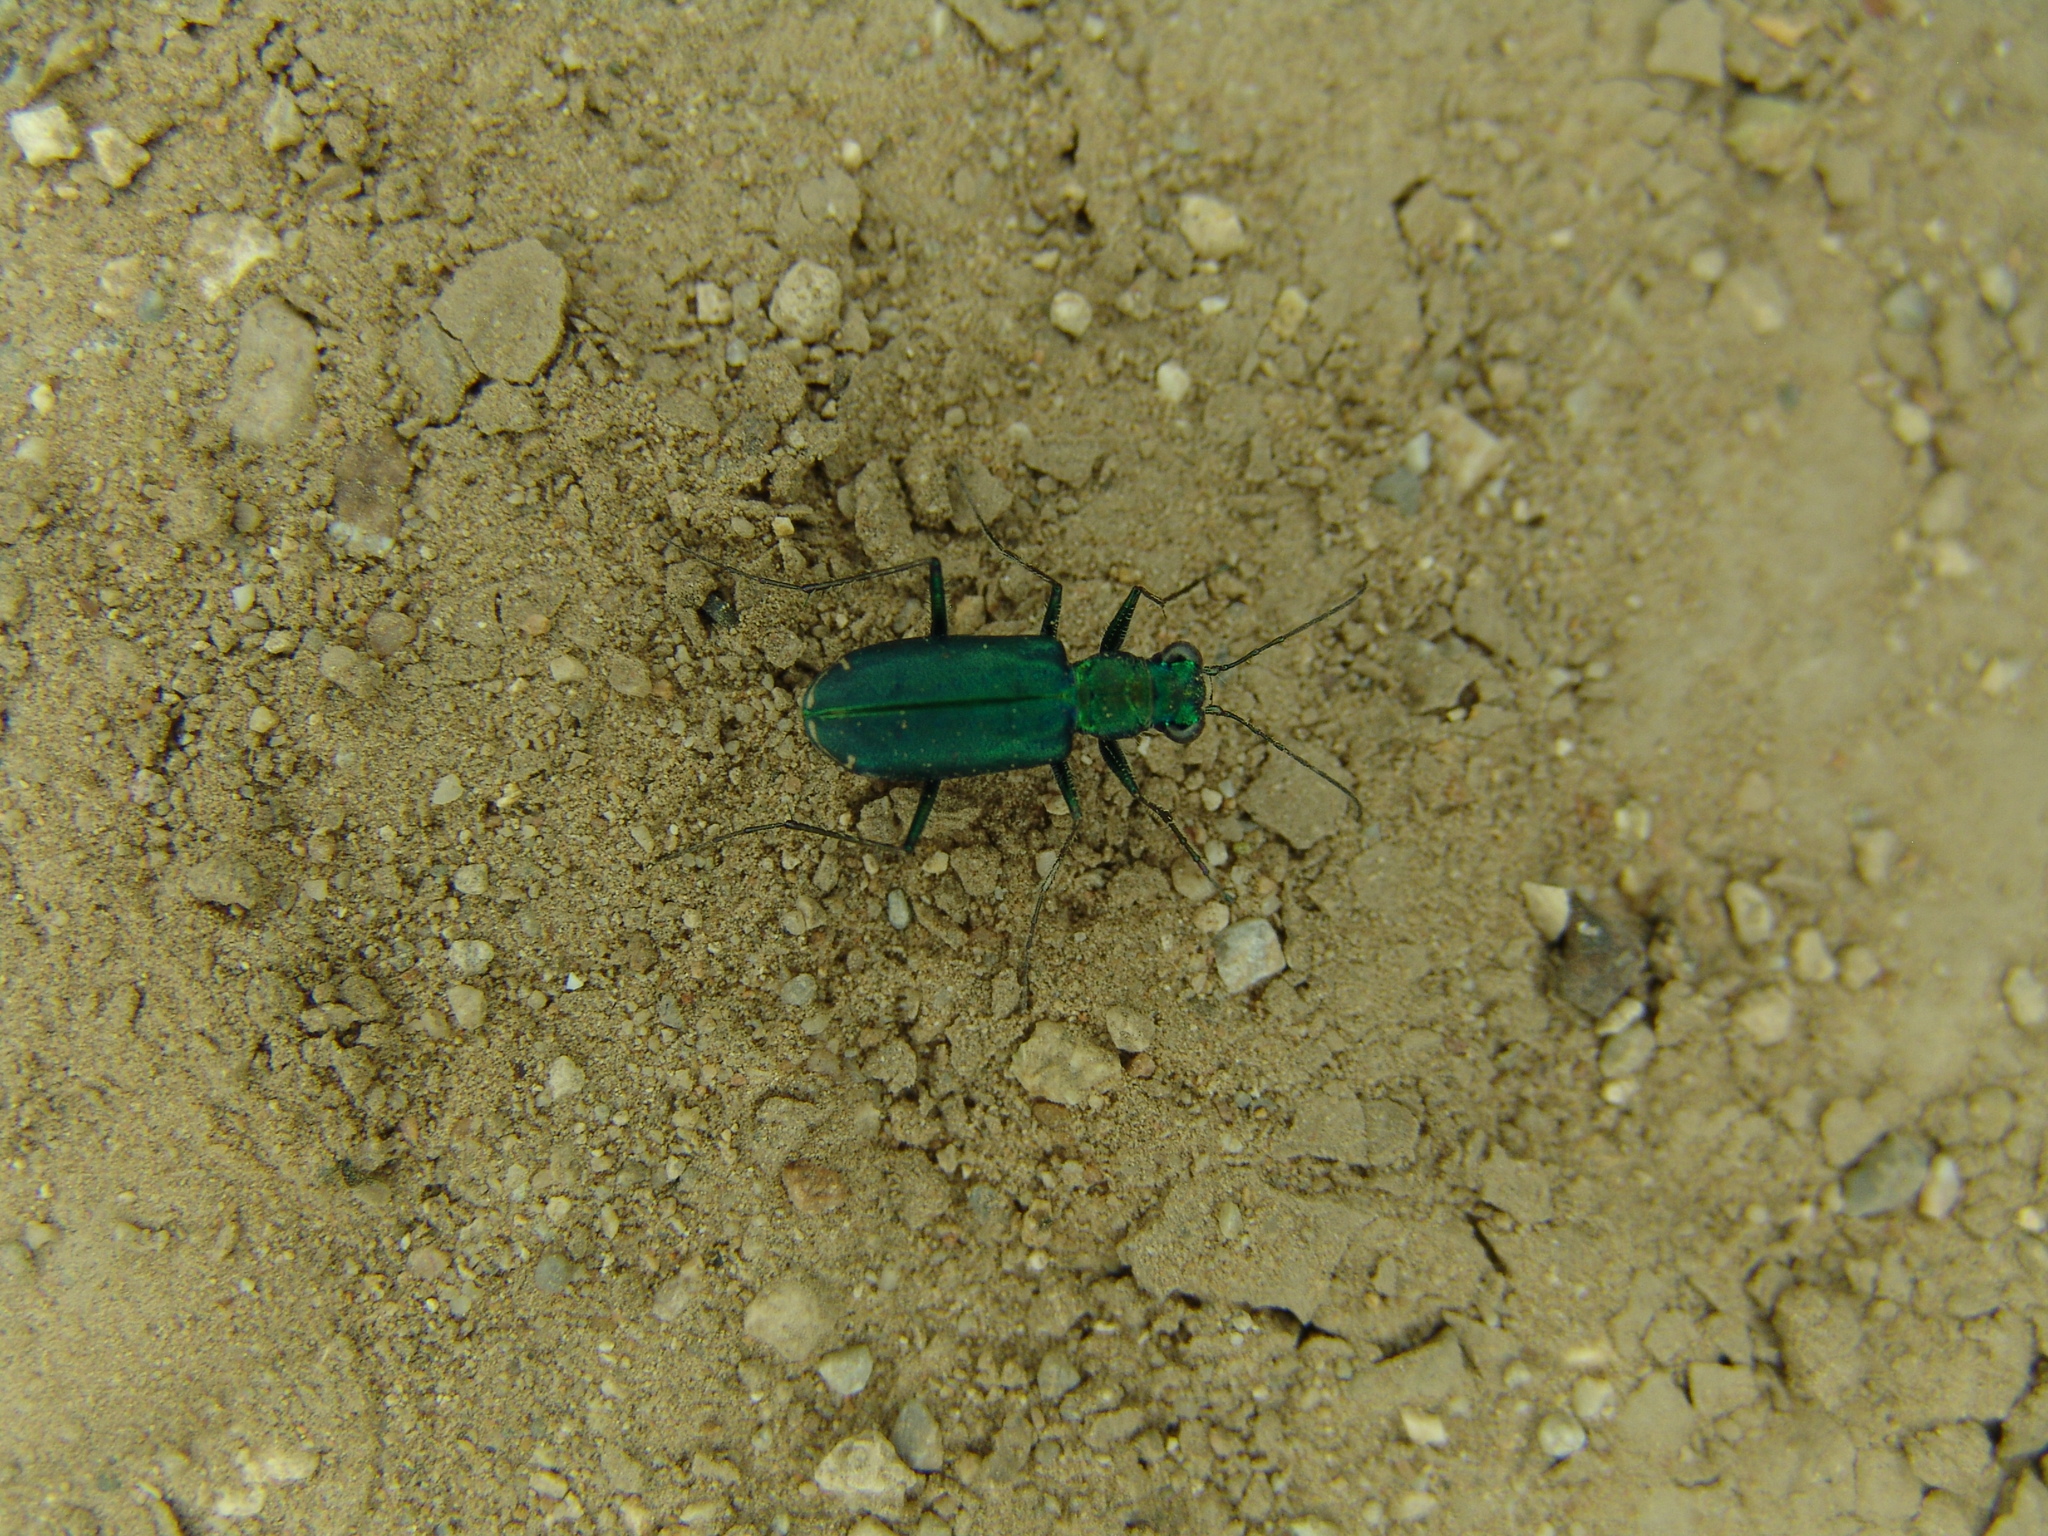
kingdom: Animalia
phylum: Arthropoda
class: Insecta
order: Coleoptera
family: Carabidae
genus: Cicindela
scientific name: Cicindela punctulata
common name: Punctured tiger beetle
